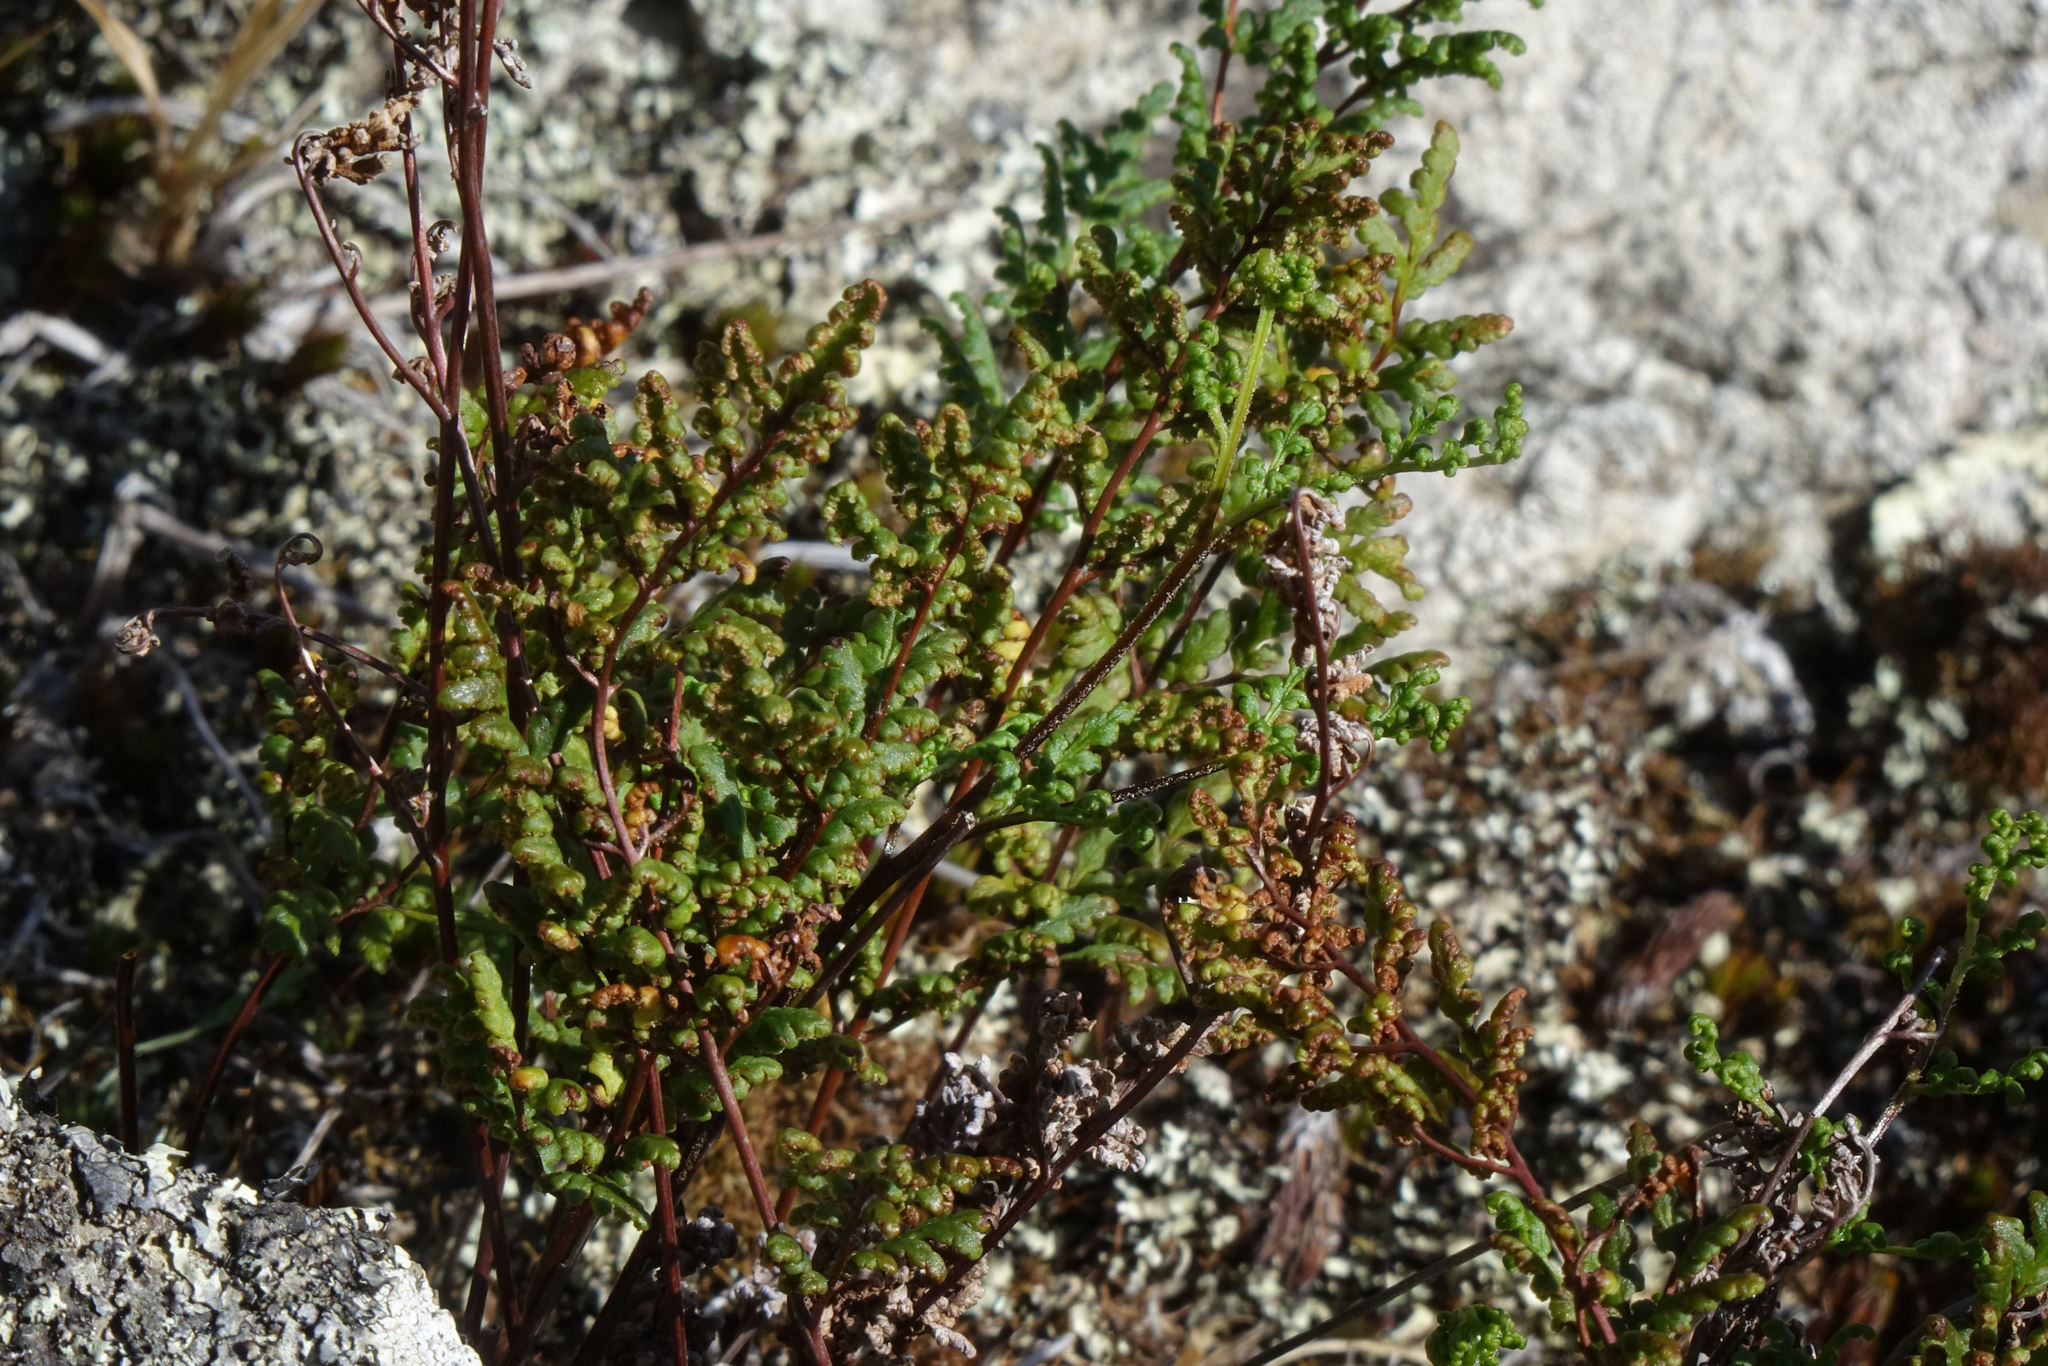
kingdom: Plantae
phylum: Tracheophyta
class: Polypodiopsida
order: Polypodiales
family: Pteridaceae
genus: Cheilanthes
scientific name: Cheilanthes sieberi
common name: Mulga fern
